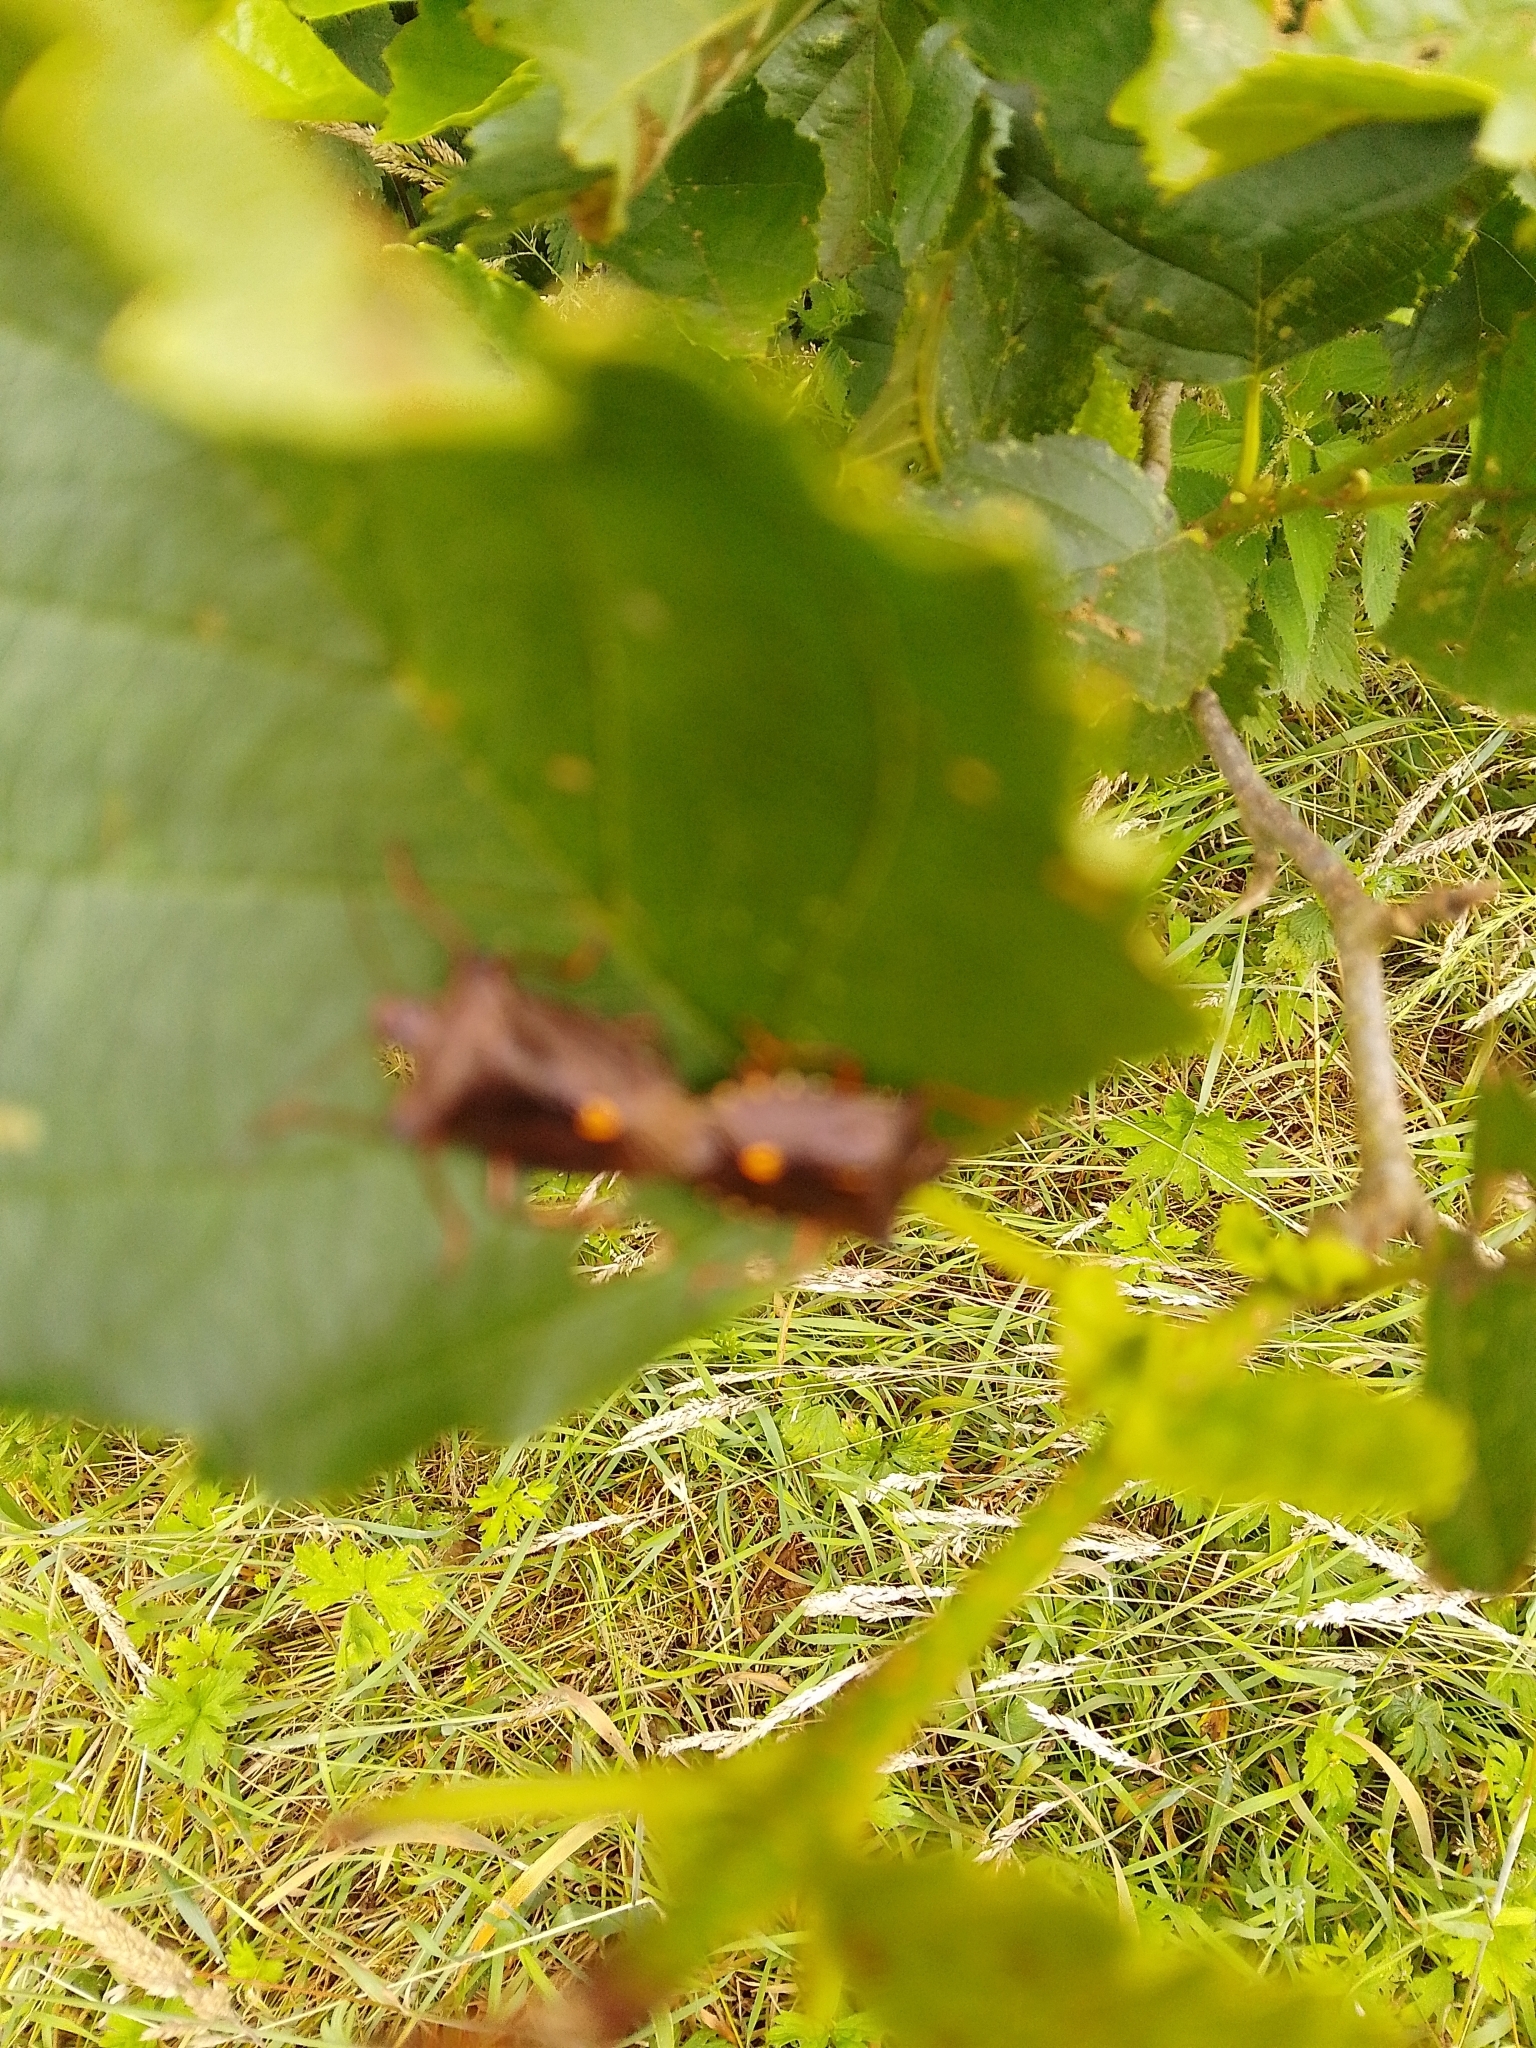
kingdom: Animalia
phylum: Arthropoda
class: Insecta
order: Hemiptera
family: Pentatomidae
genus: Pentatoma
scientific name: Pentatoma rufipes
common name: Forest bug
